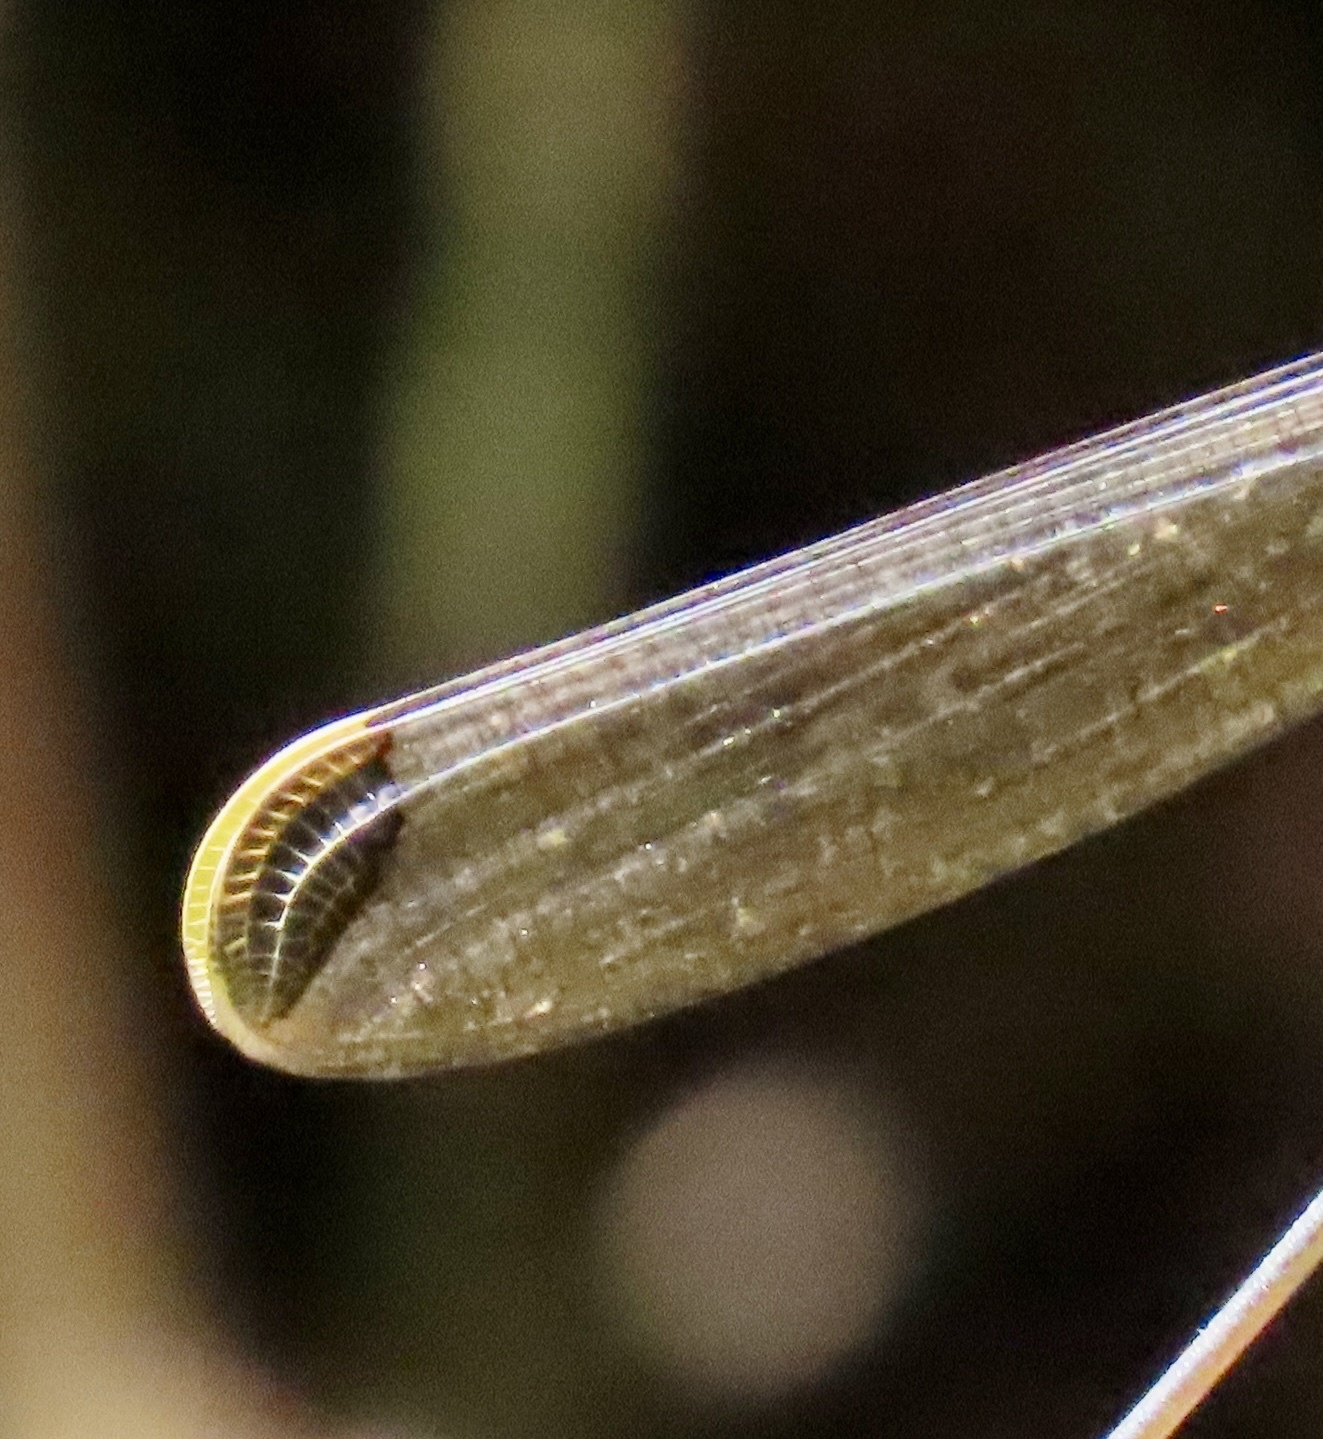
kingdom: Animalia
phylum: Arthropoda
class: Insecta
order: Odonata
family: Coenagrionidae
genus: Mecistogaster
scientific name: Mecistogaster ornata
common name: Ornate helicopter
